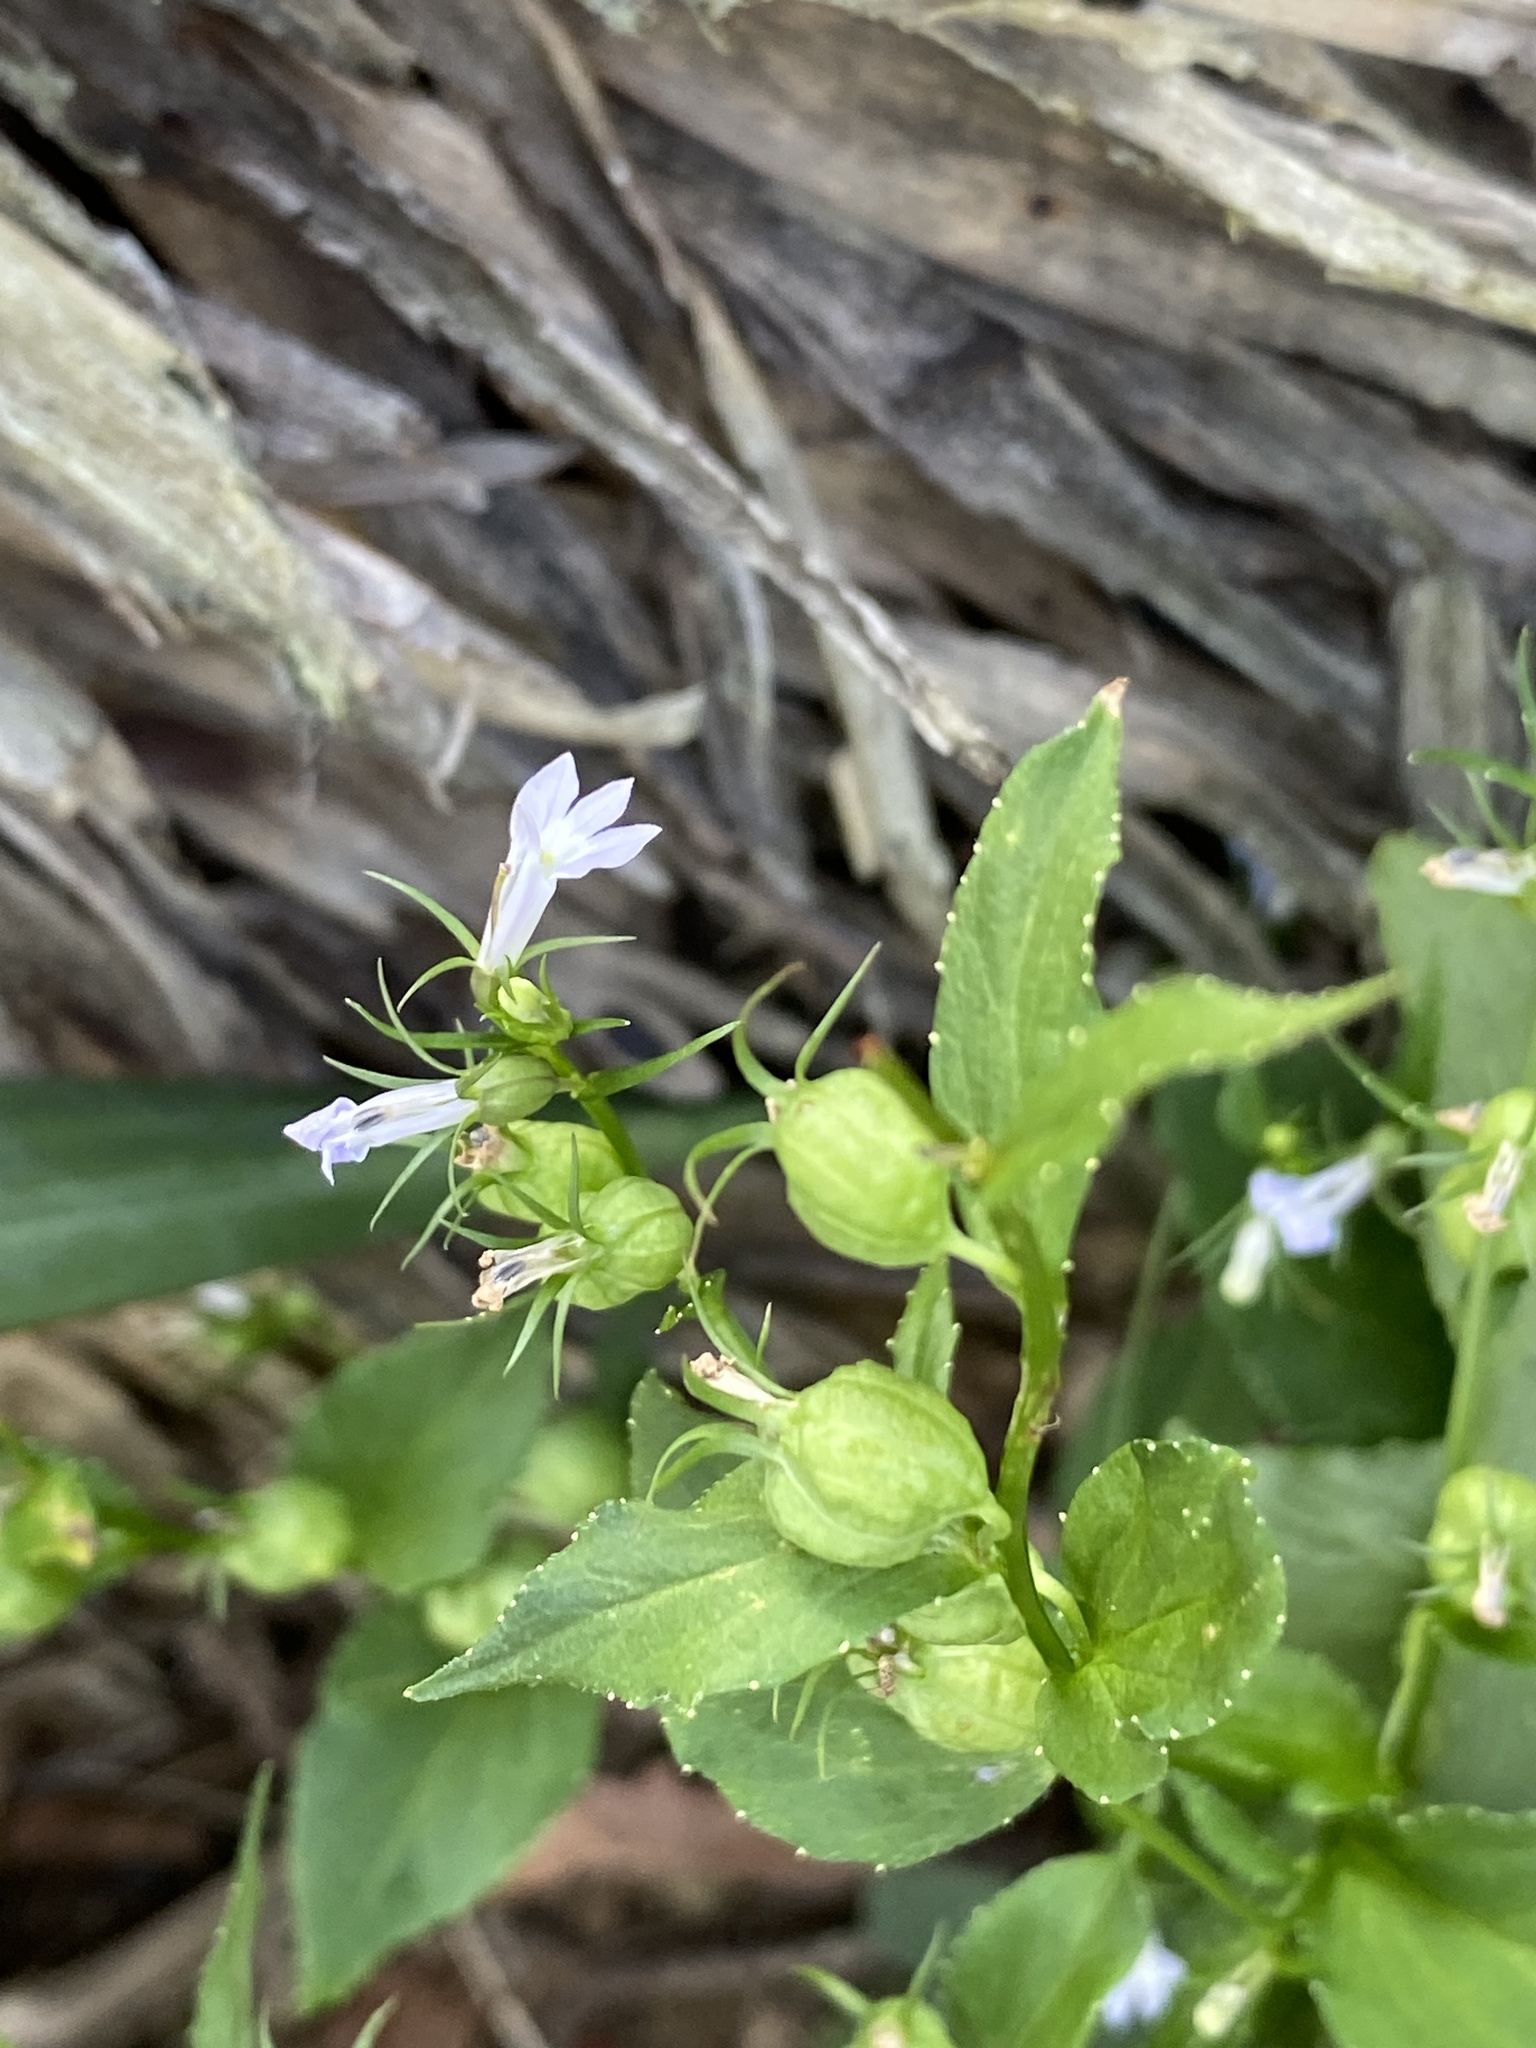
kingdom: Plantae
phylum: Tracheophyta
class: Magnoliopsida
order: Asterales
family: Campanulaceae
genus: Lobelia
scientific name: Lobelia inflata
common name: Indian tobacco
